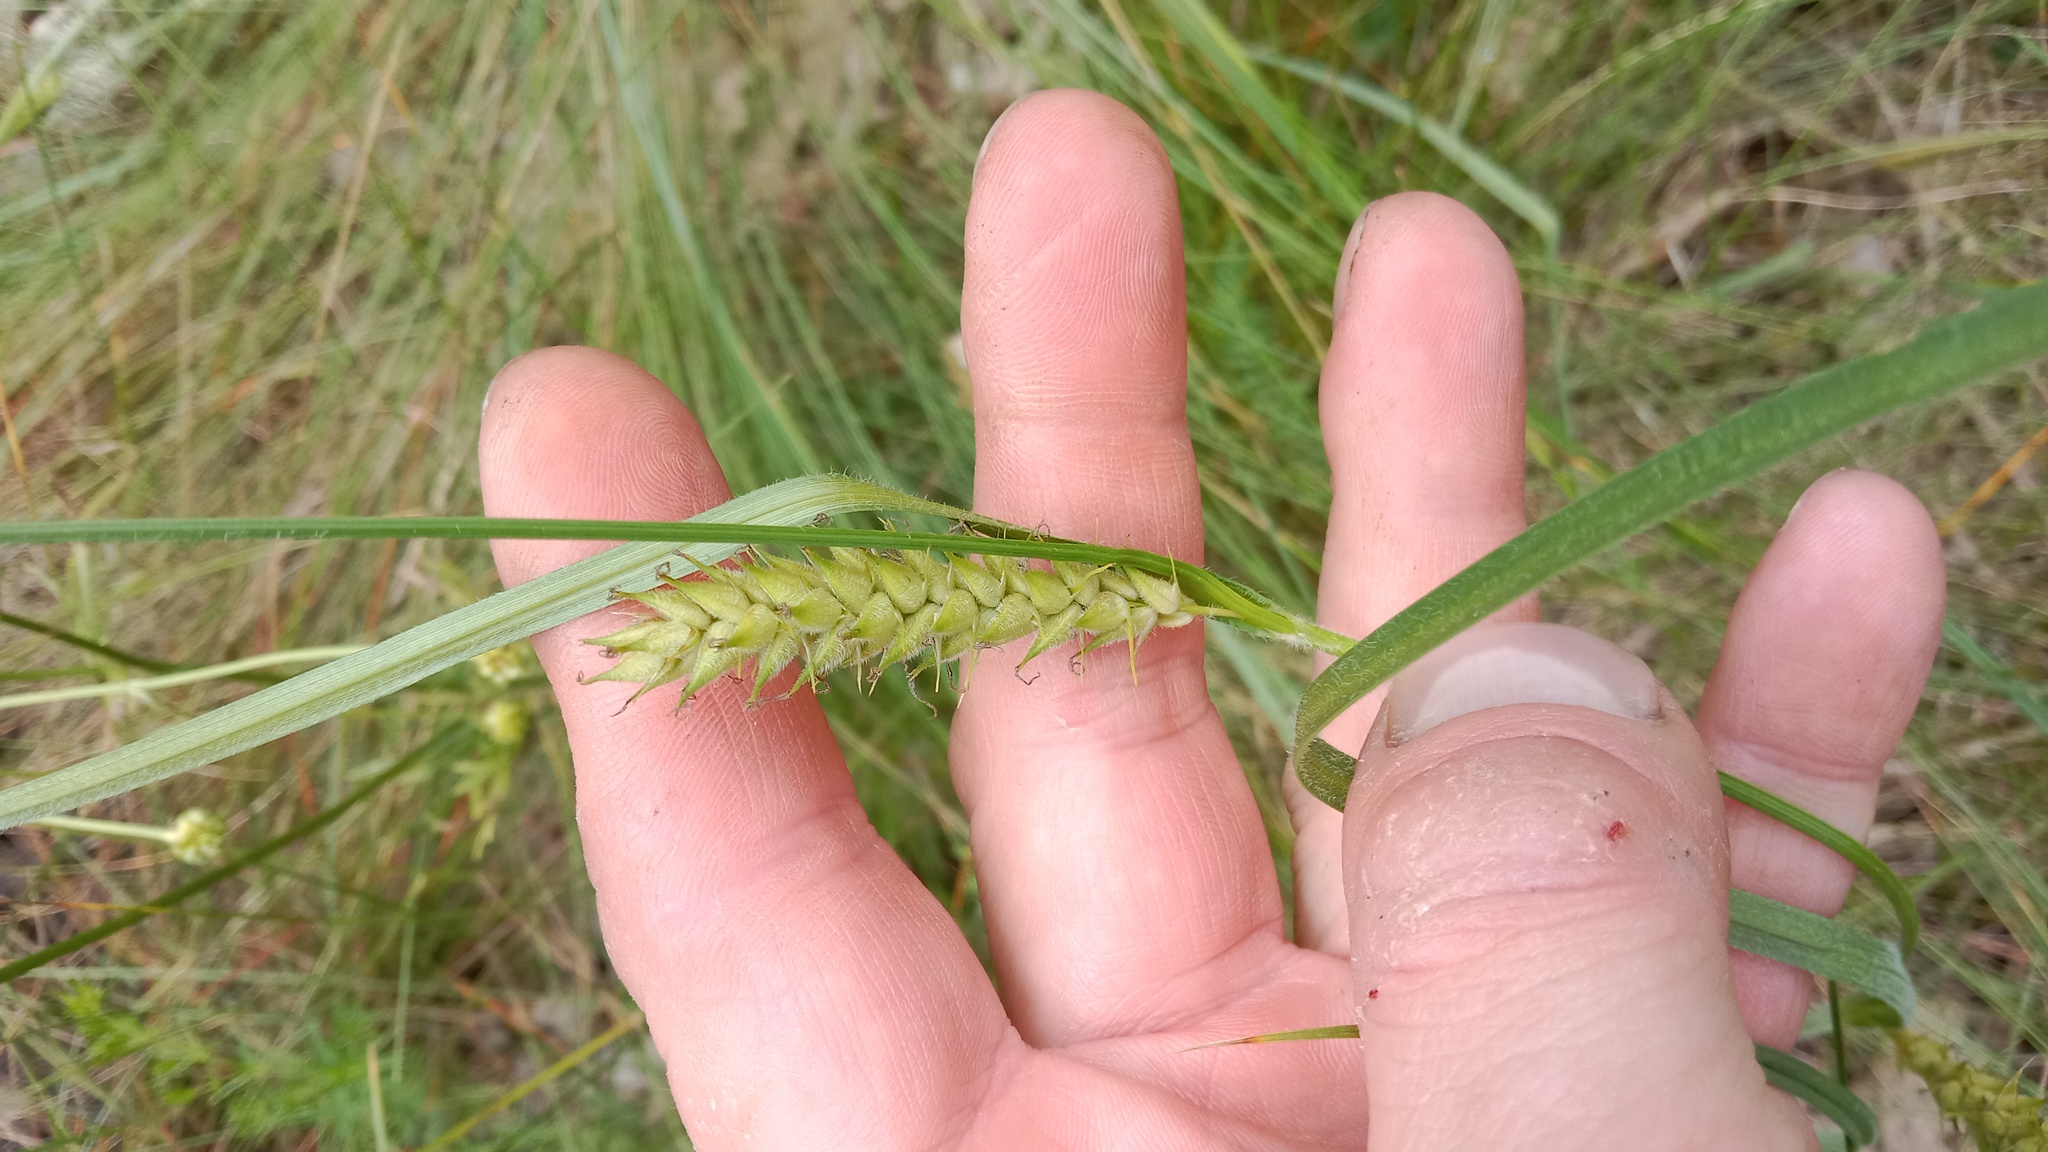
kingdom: Plantae
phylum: Tracheophyta
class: Liliopsida
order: Poales
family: Cyperaceae
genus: Carex
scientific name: Carex hirta
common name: Hairy sedge
